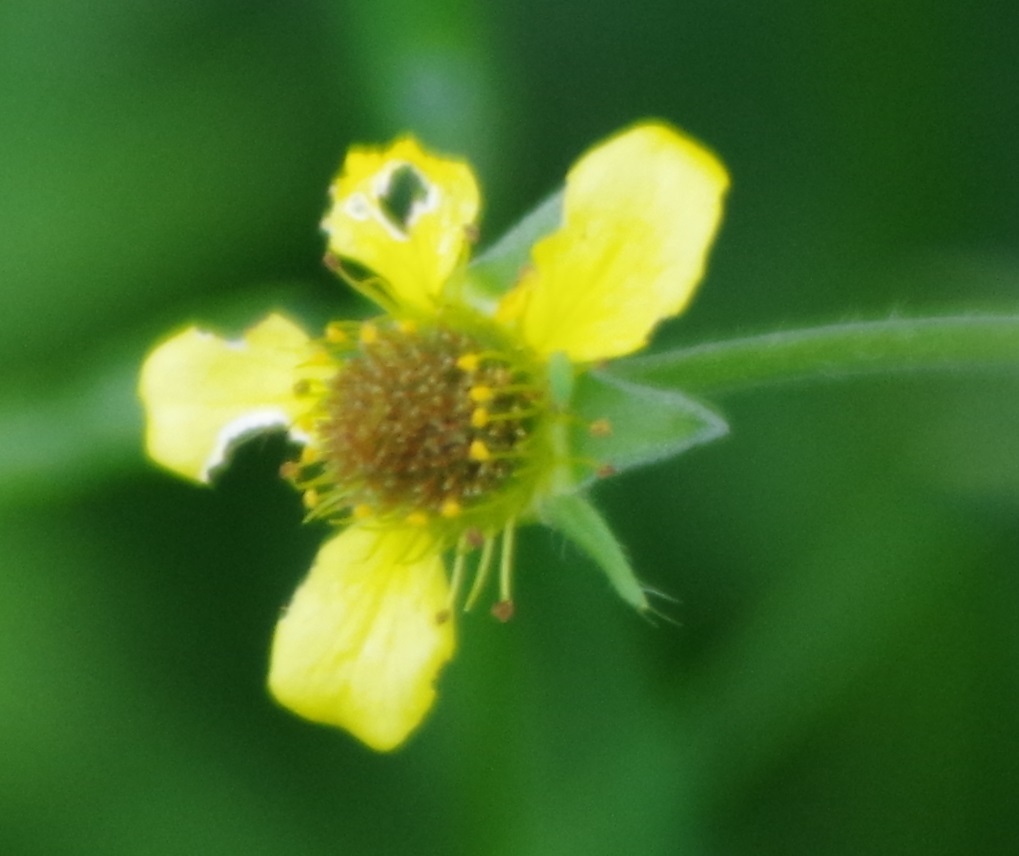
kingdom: Plantae
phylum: Tracheophyta
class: Magnoliopsida
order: Rosales
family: Rosaceae
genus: Geum
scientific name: Geum urbanum
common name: Wood avens
